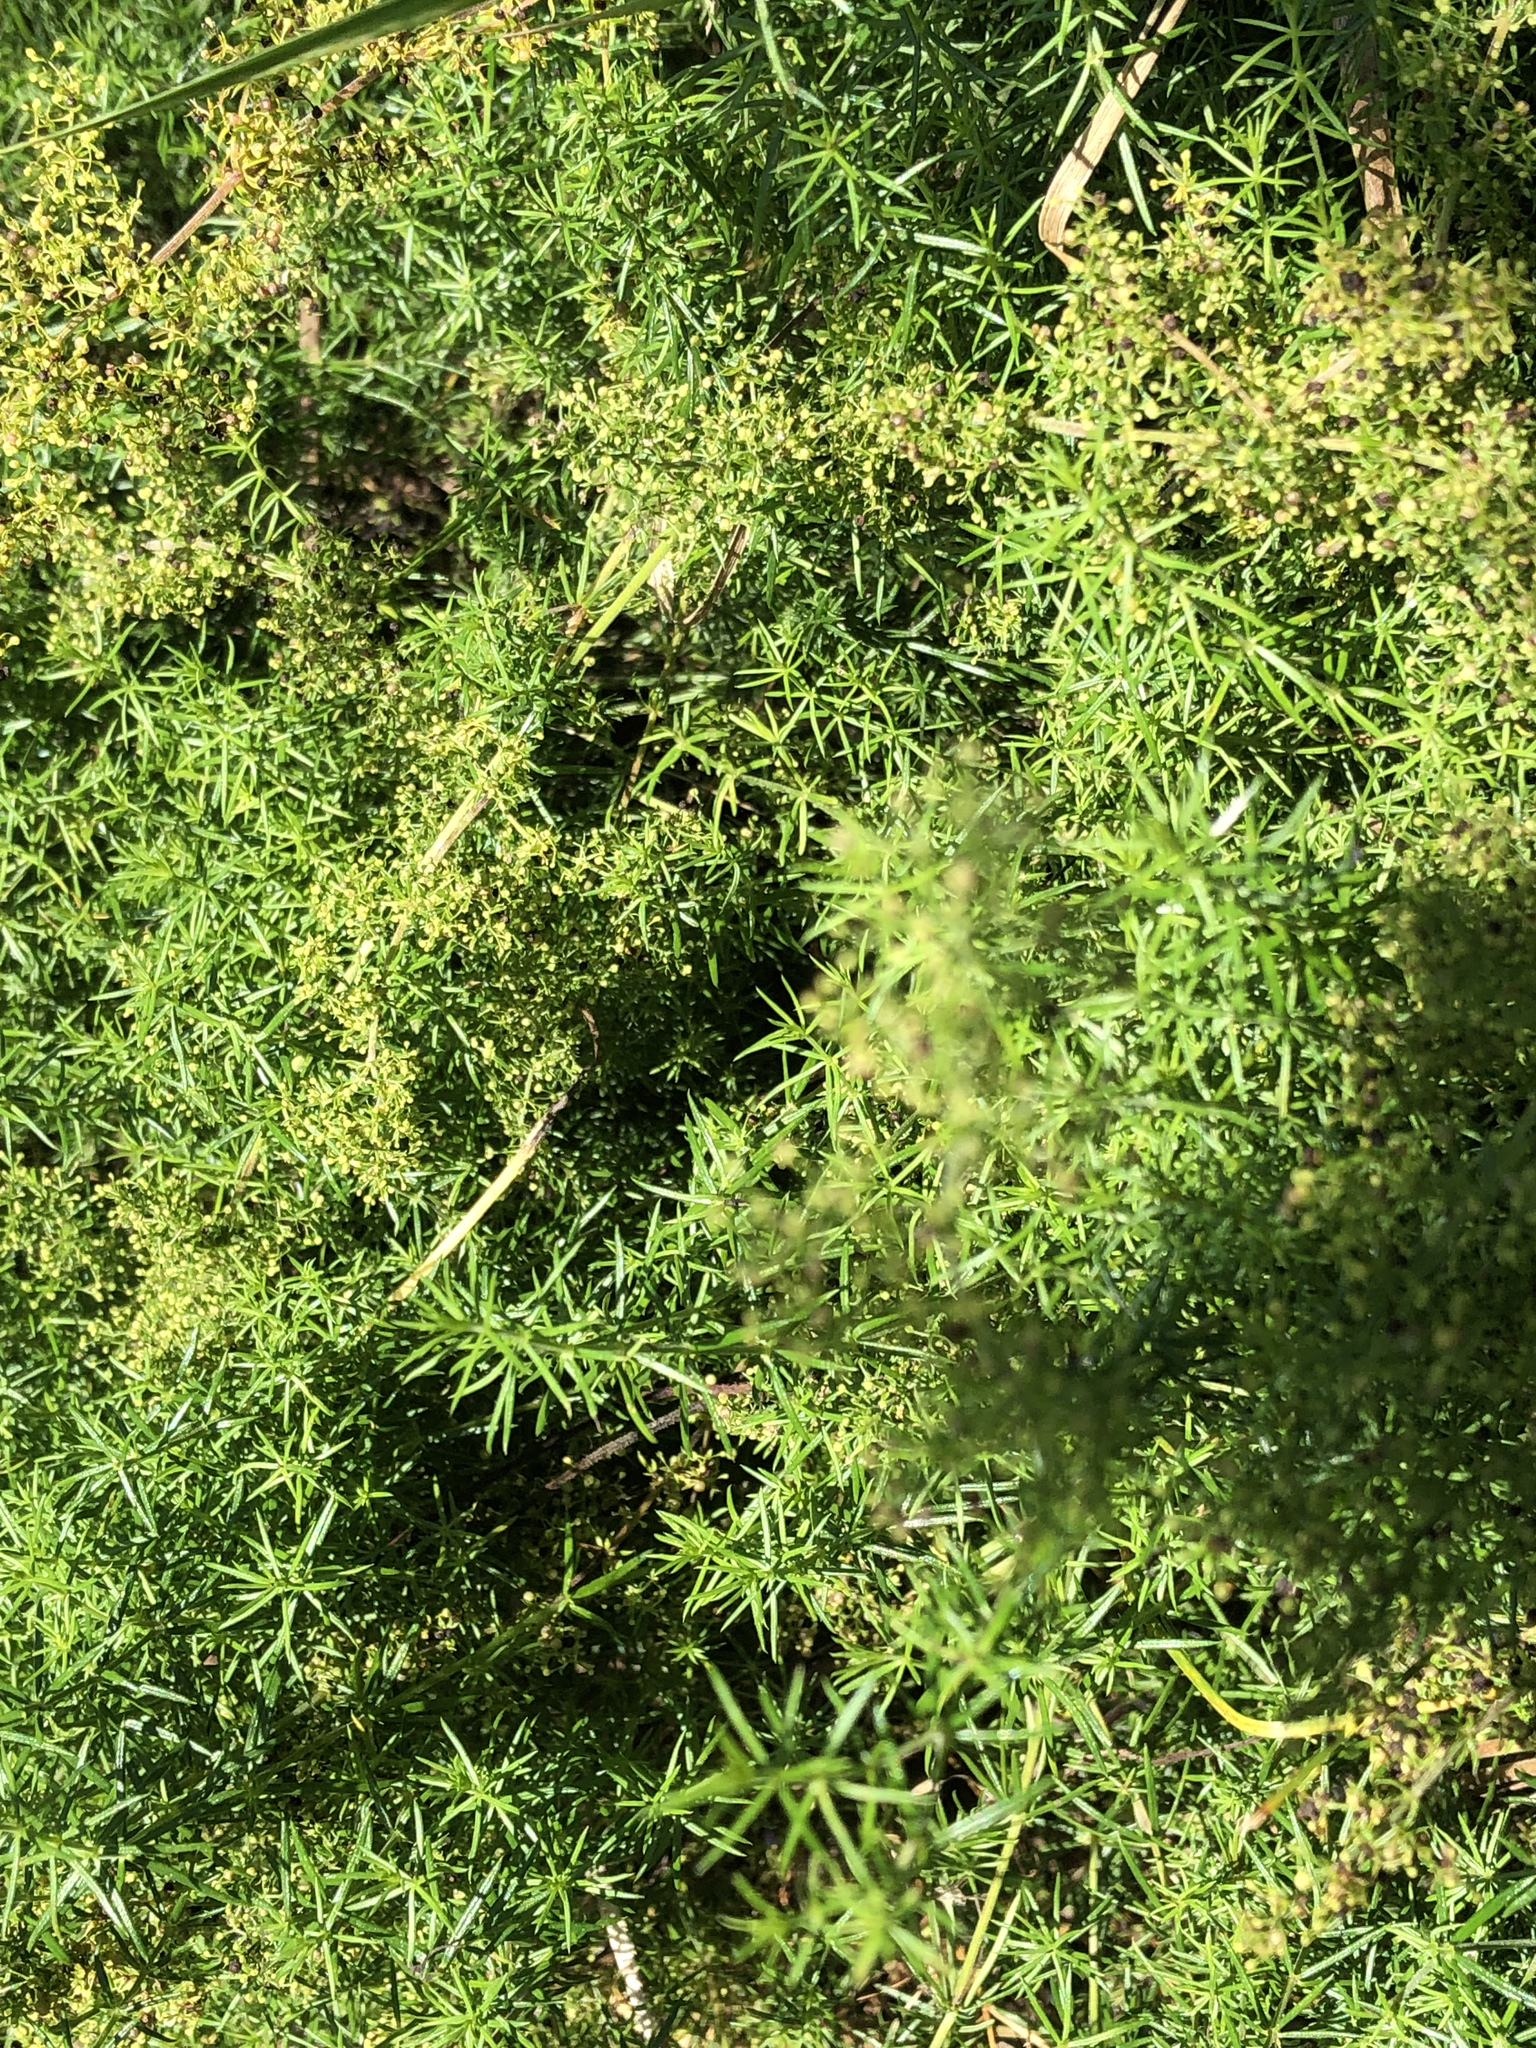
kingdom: Plantae
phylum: Tracheophyta
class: Magnoliopsida
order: Gentianales
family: Rubiaceae
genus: Galium
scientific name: Galium verum
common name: Lady's bedstraw
